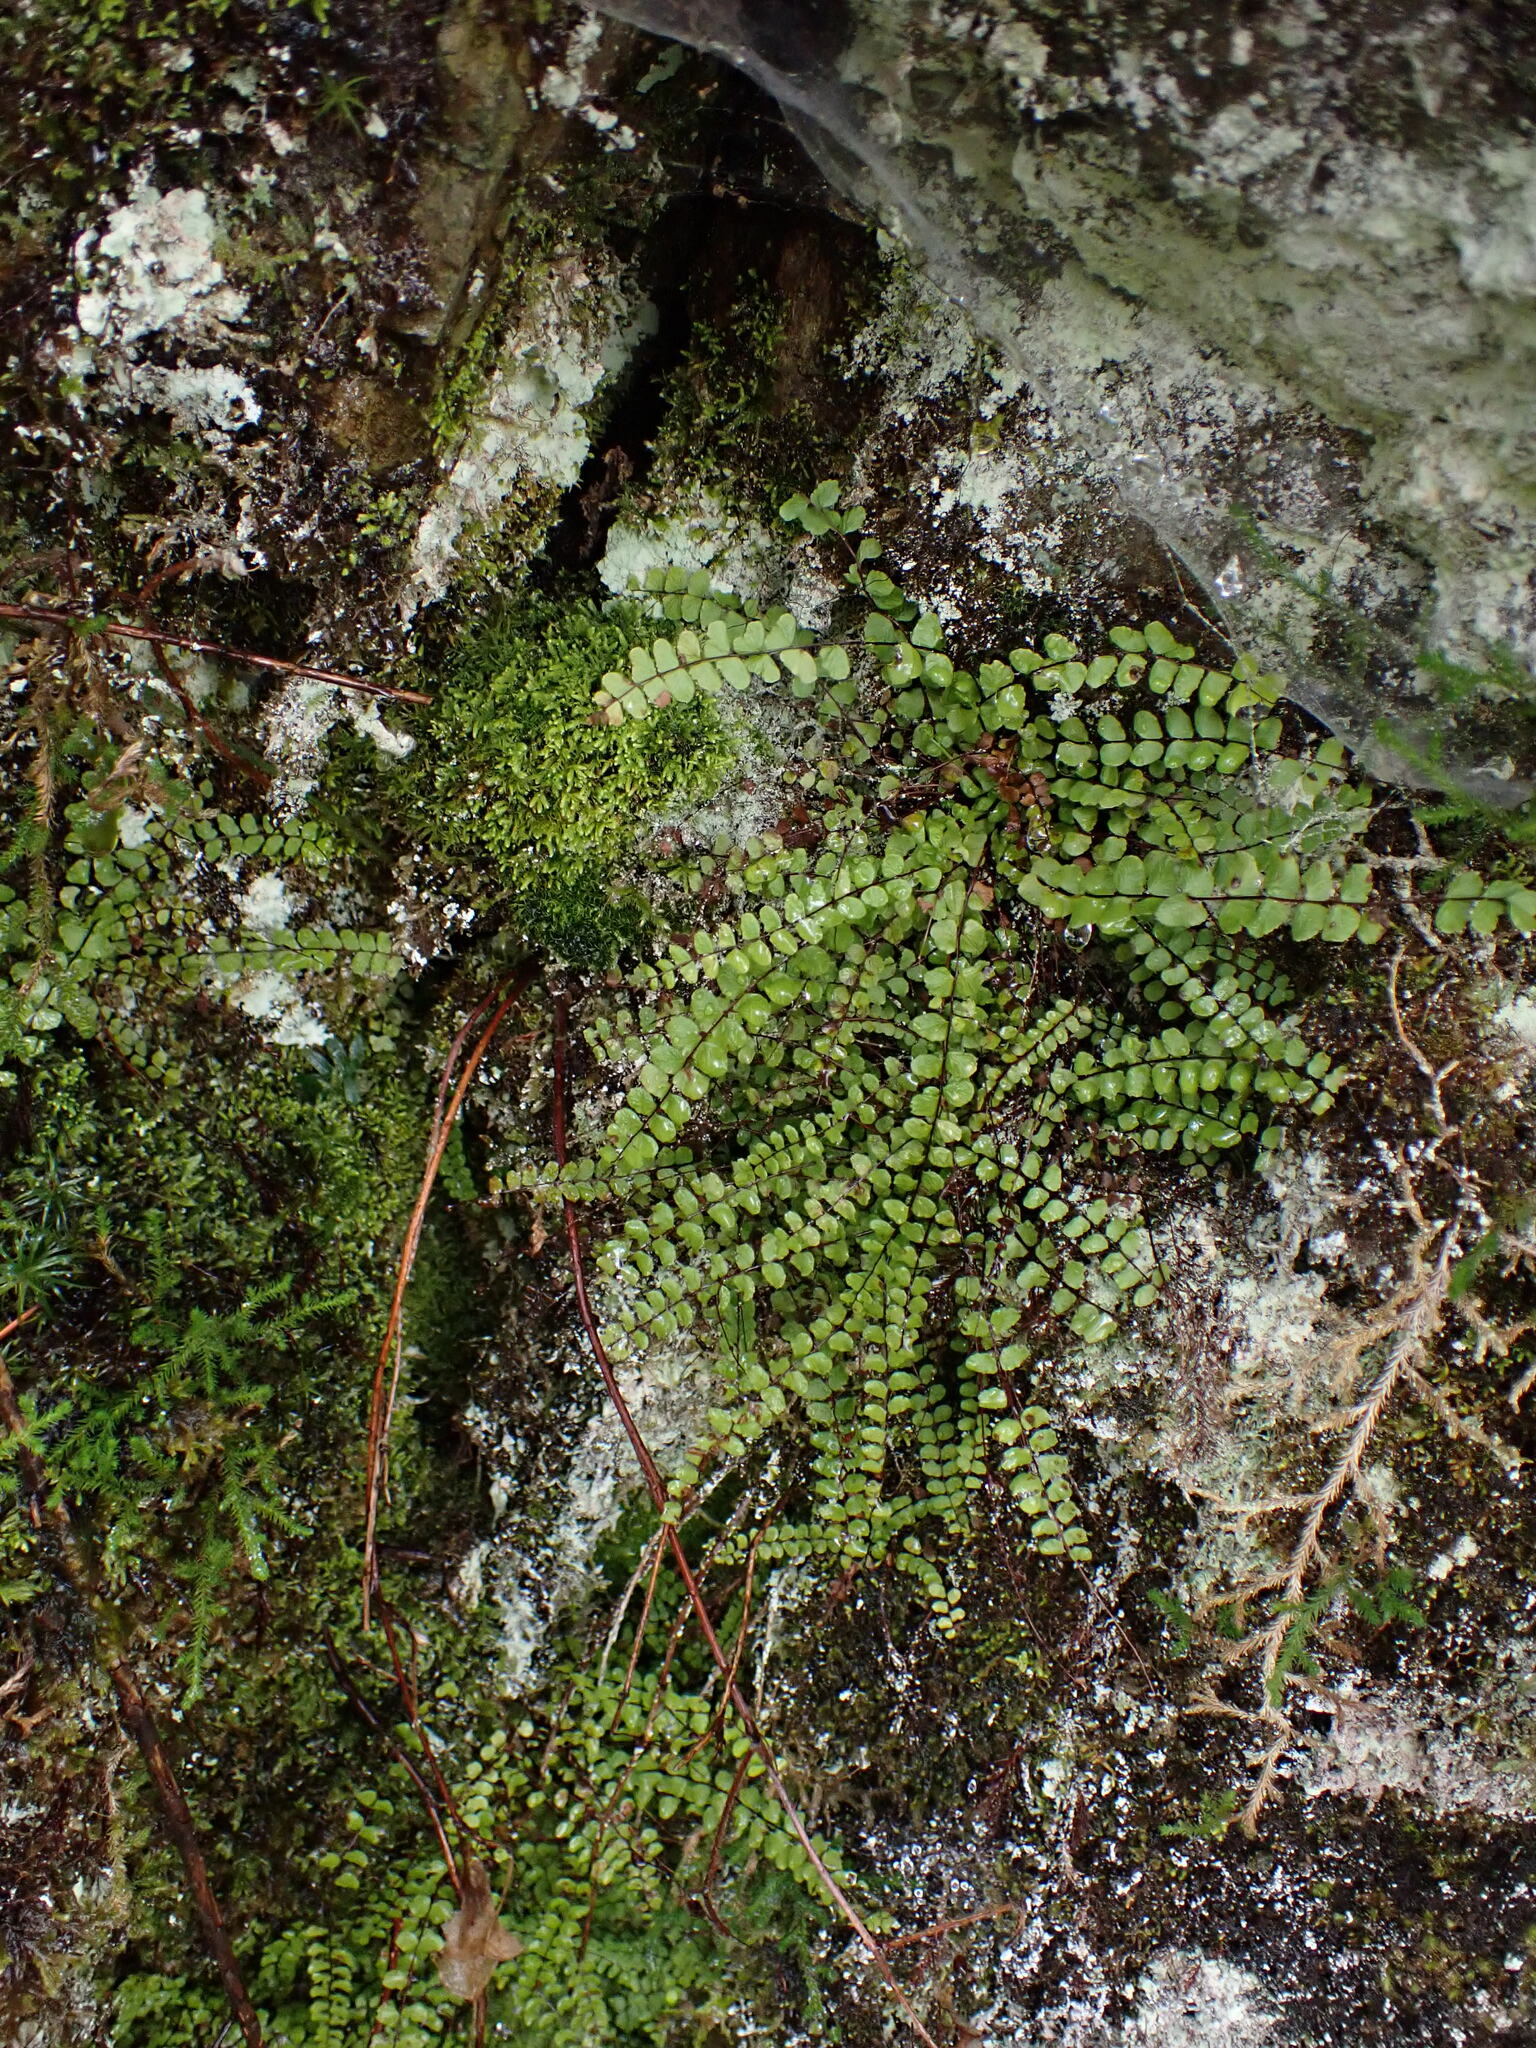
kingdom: Plantae
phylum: Tracheophyta
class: Polypodiopsida
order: Polypodiales
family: Aspleniaceae
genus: Asplenium
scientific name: Asplenium trichomanes
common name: Maidenhair spleenwort
